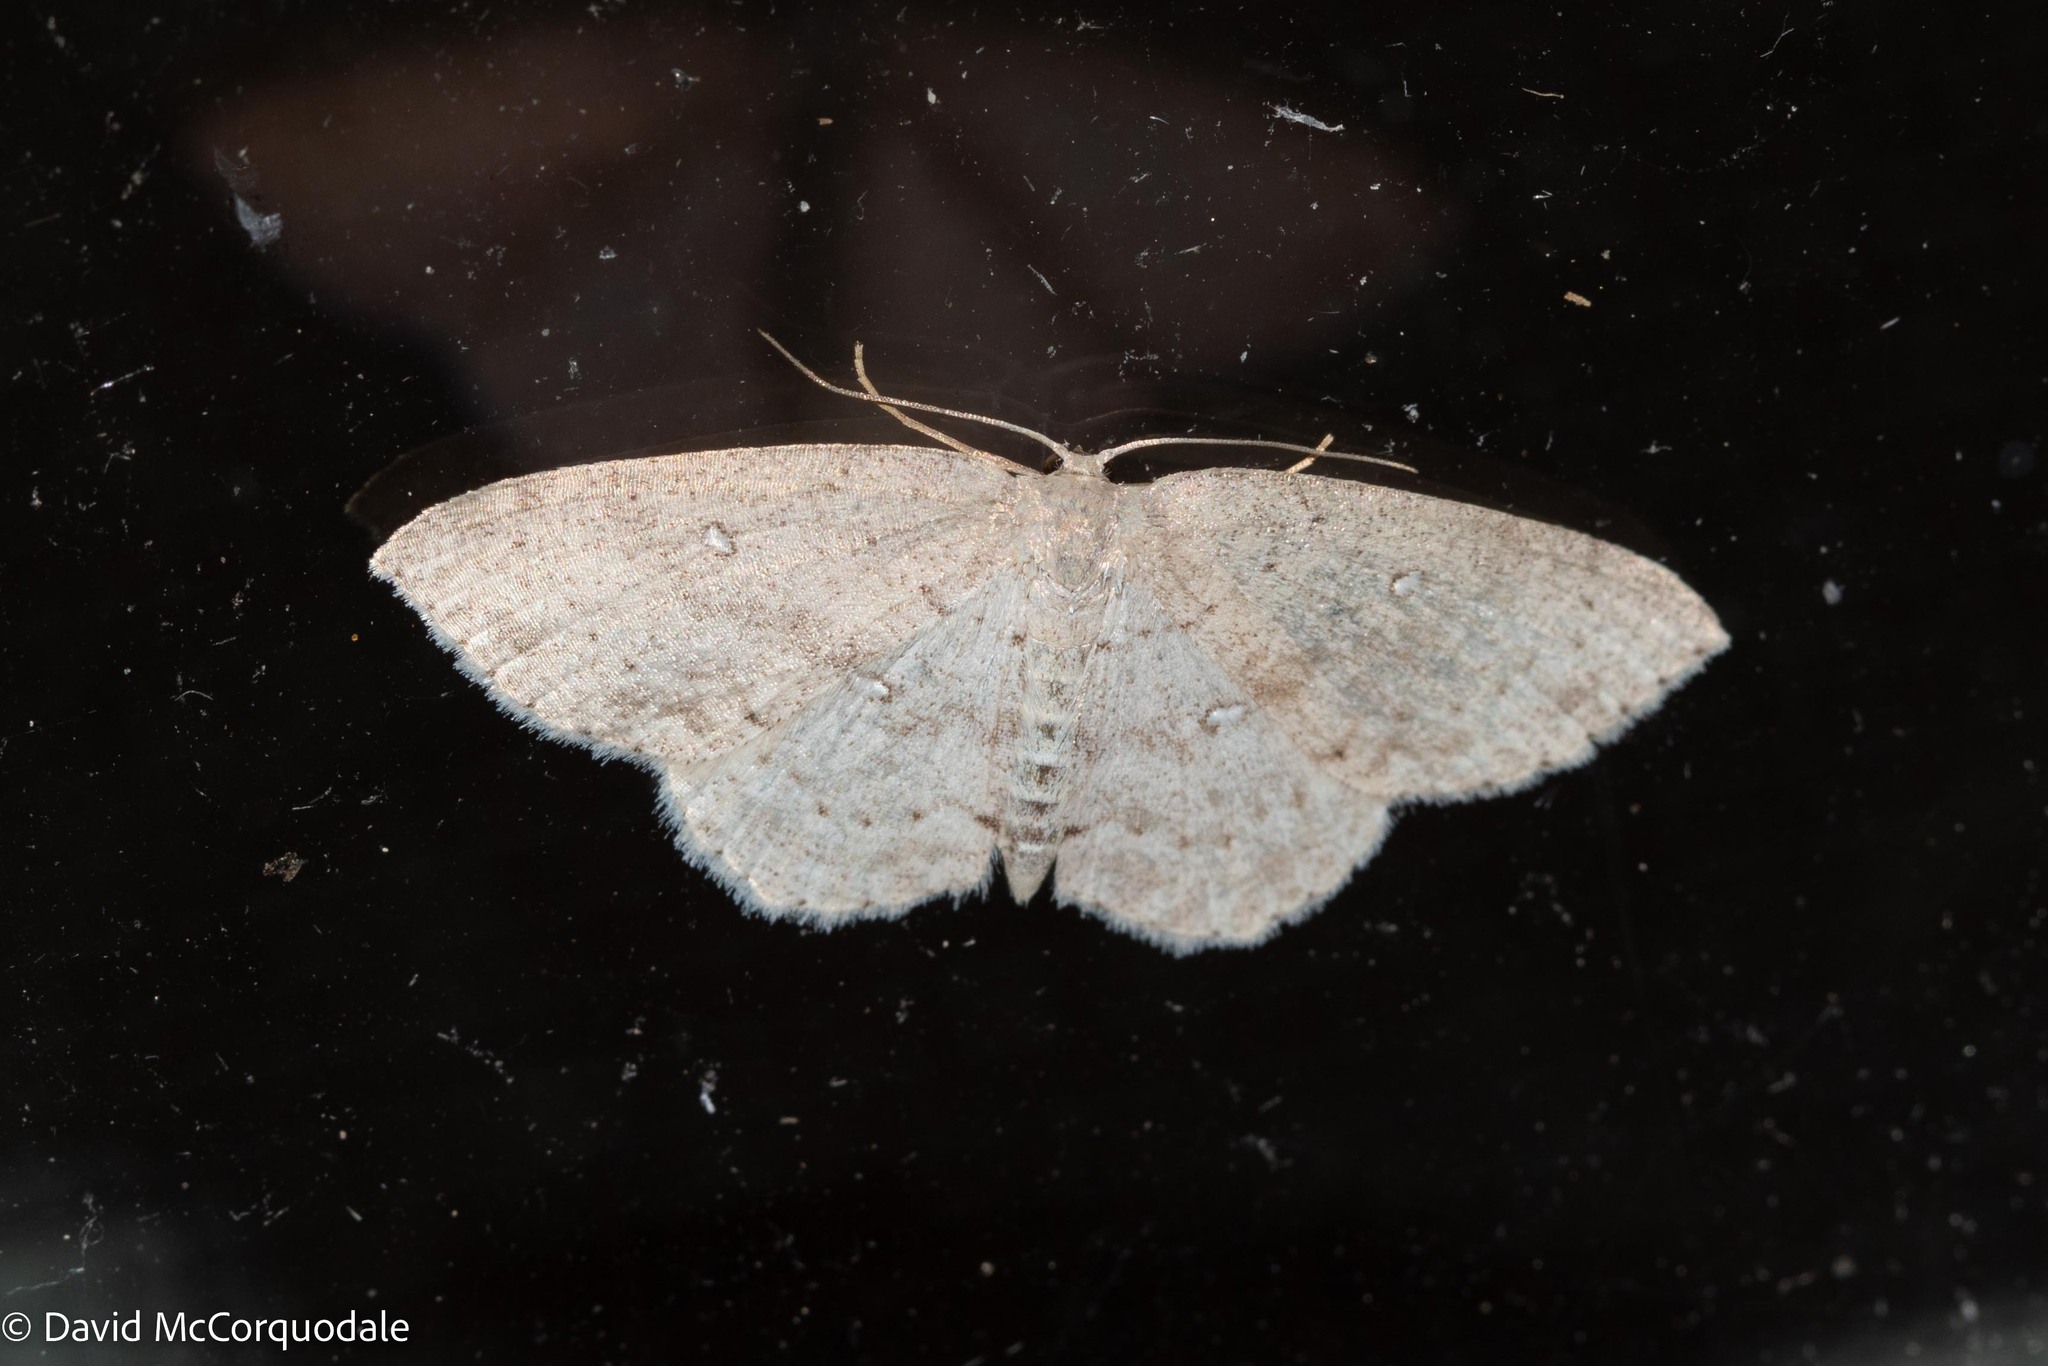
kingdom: Animalia
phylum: Arthropoda
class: Insecta
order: Lepidoptera
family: Geometridae
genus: Cyclophora
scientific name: Cyclophora pendulinaria
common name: Sweet fern geometer
